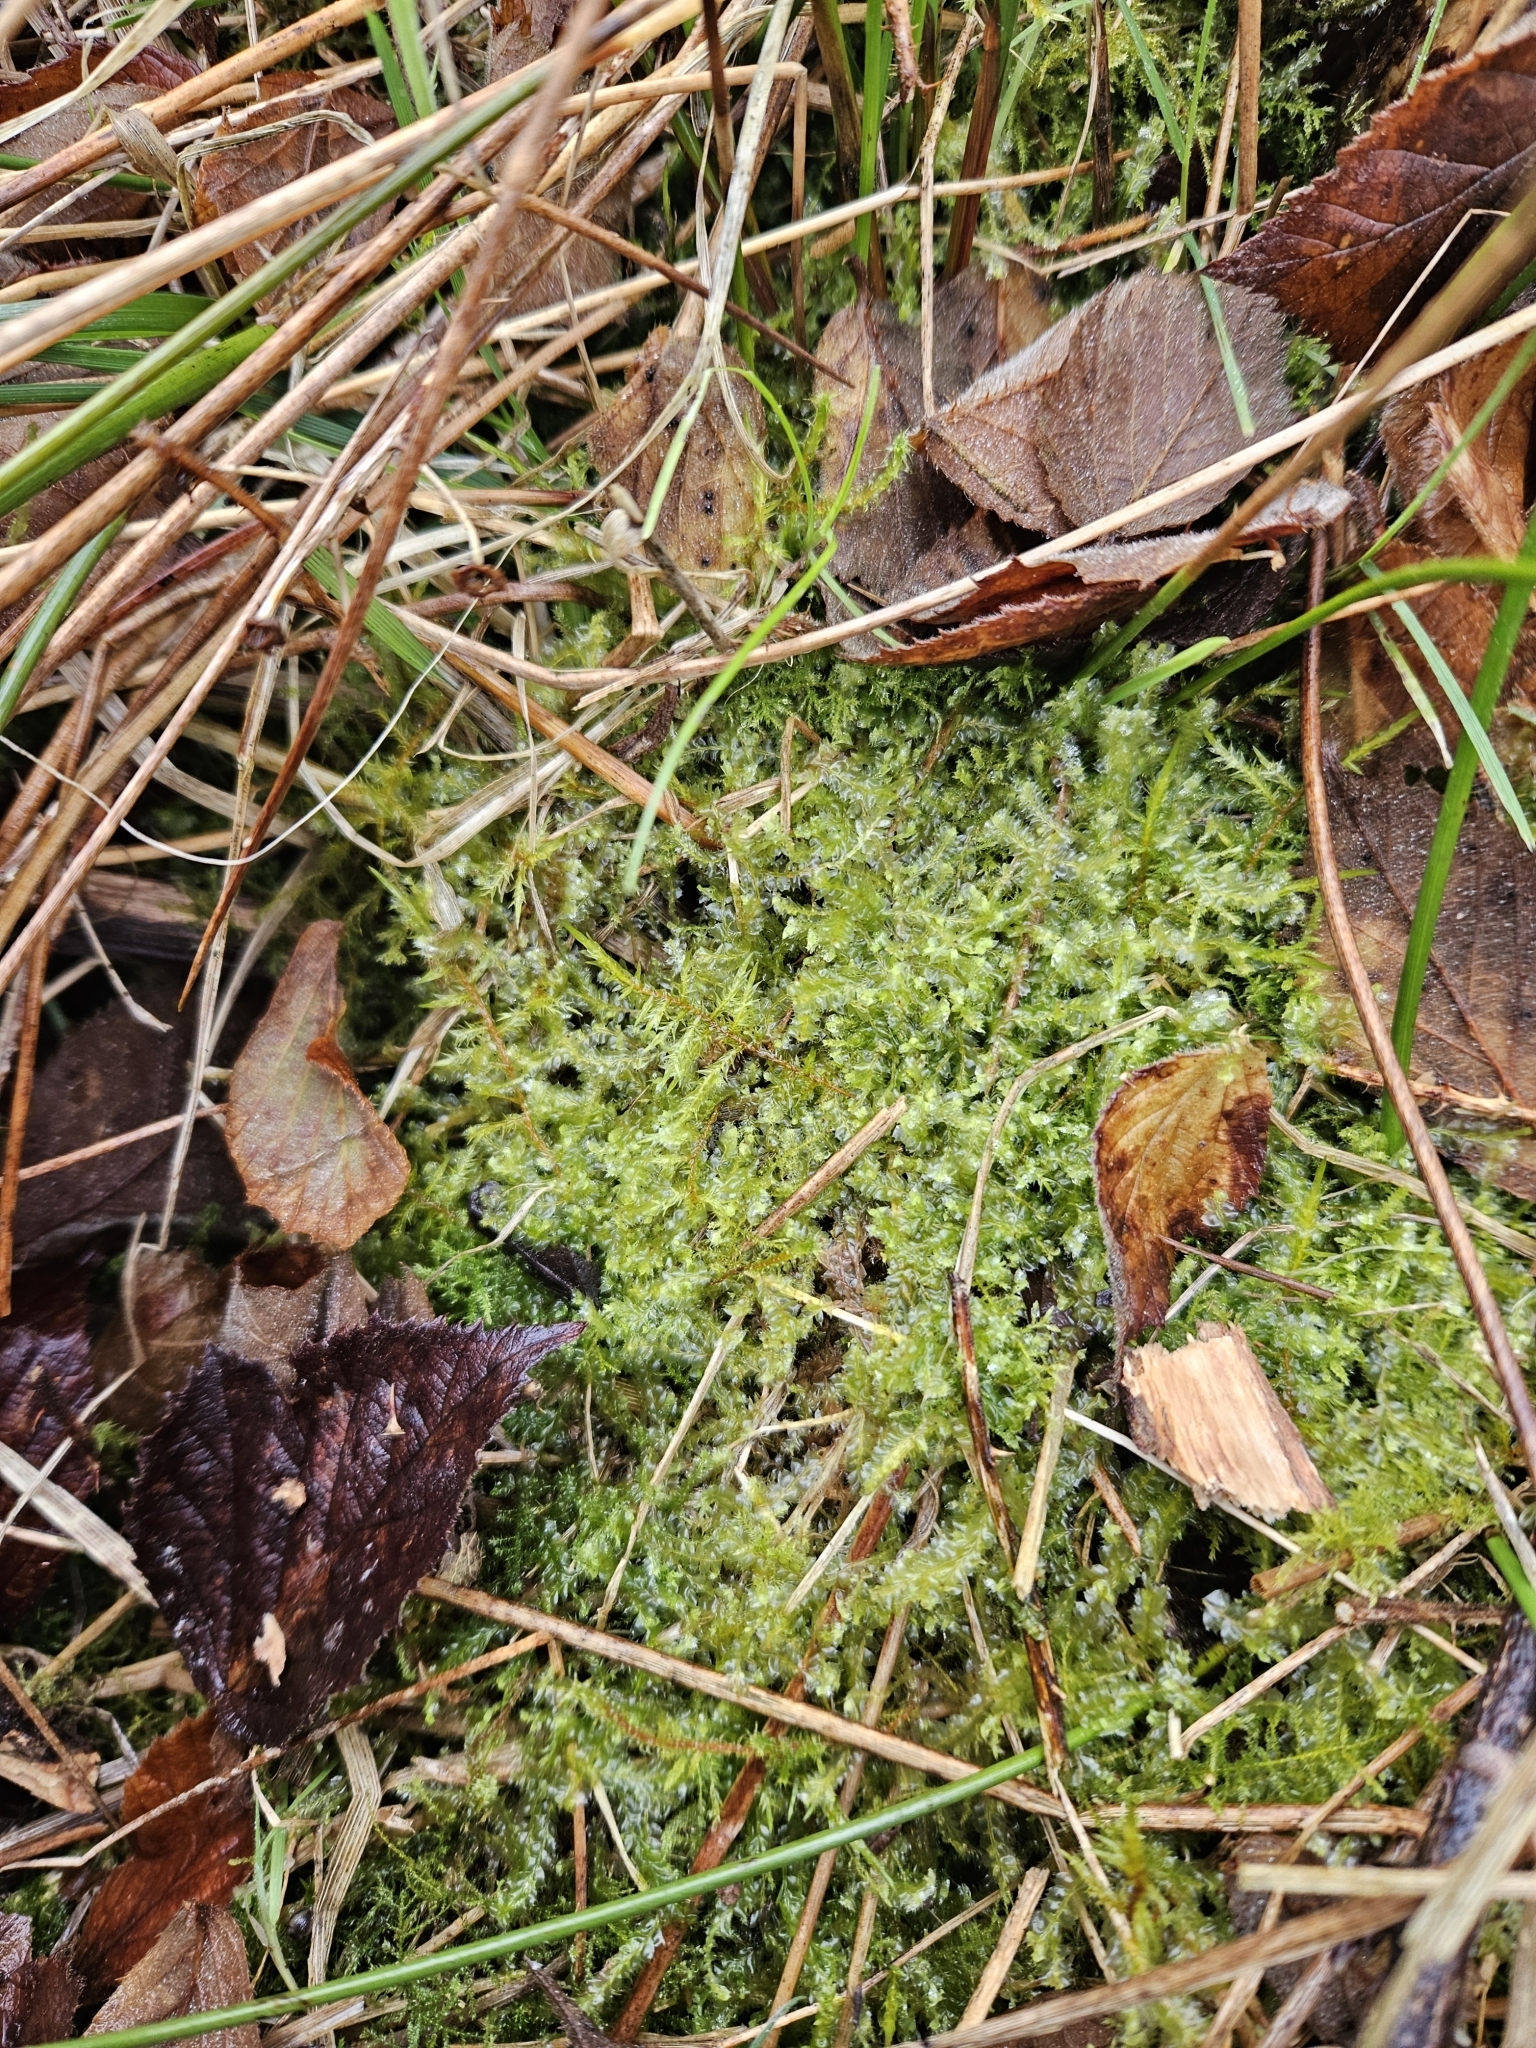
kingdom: Plantae
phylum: Bryophyta
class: Bryopsida
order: Hypnales
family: Pylaisiaceae
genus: Calliergonella
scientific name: Calliergonella cuspidata
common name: Common large wetland moss
